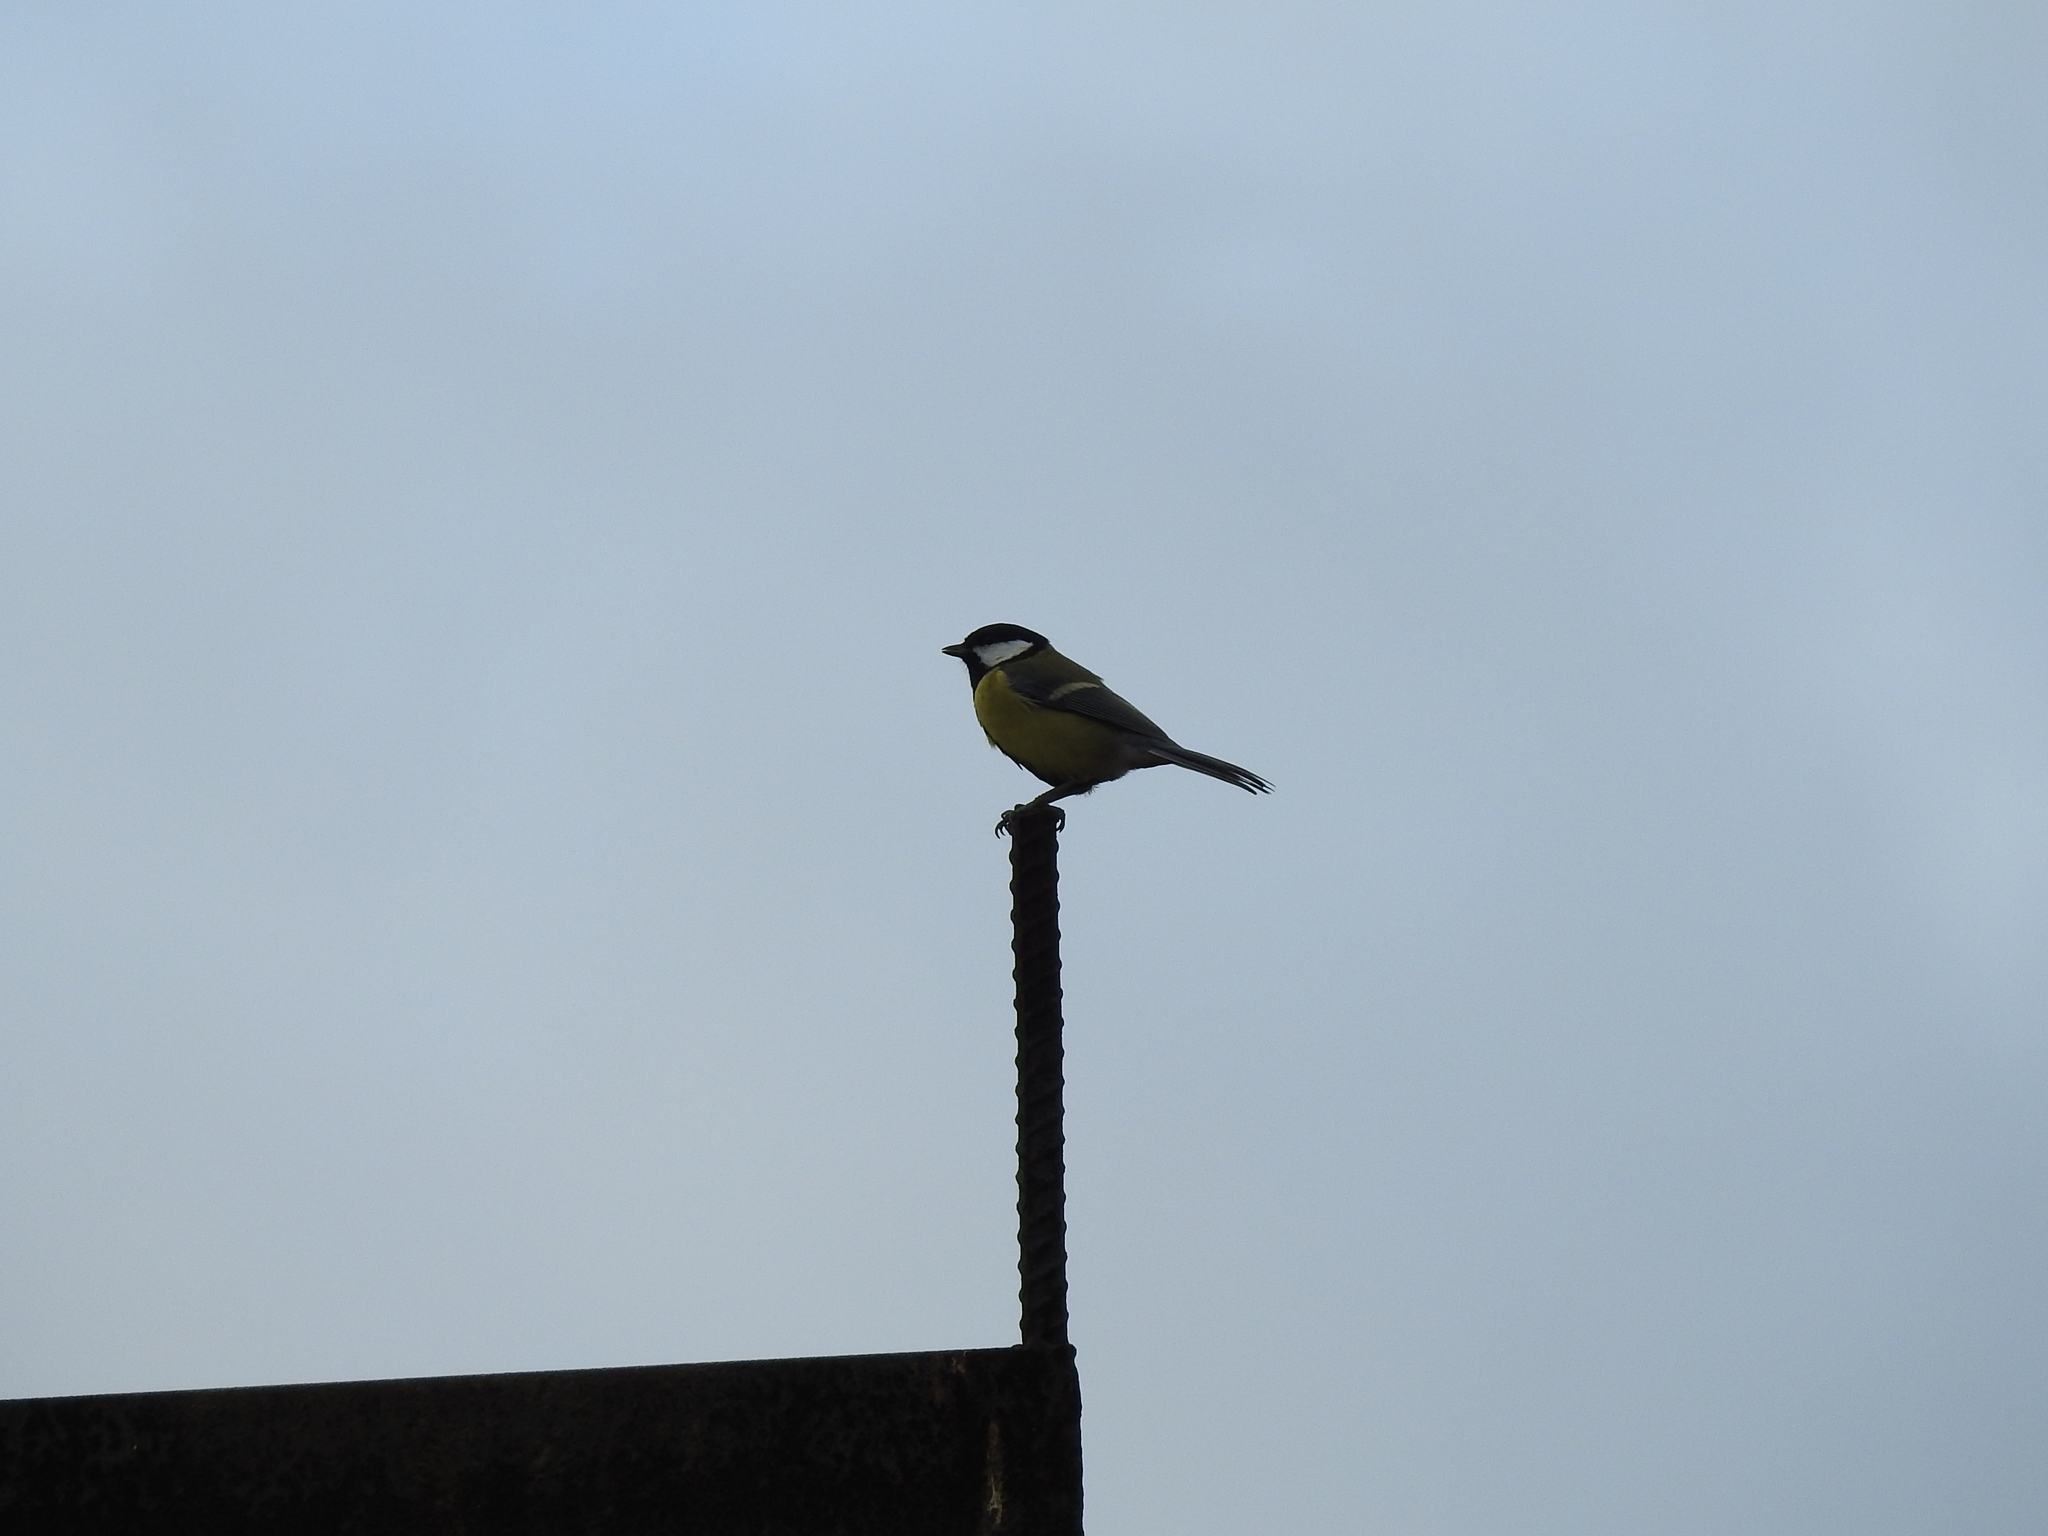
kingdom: Animalia
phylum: Chordata
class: Aves
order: Passeriformes
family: Paridae
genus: Parus
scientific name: Parus major
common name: Great tit
